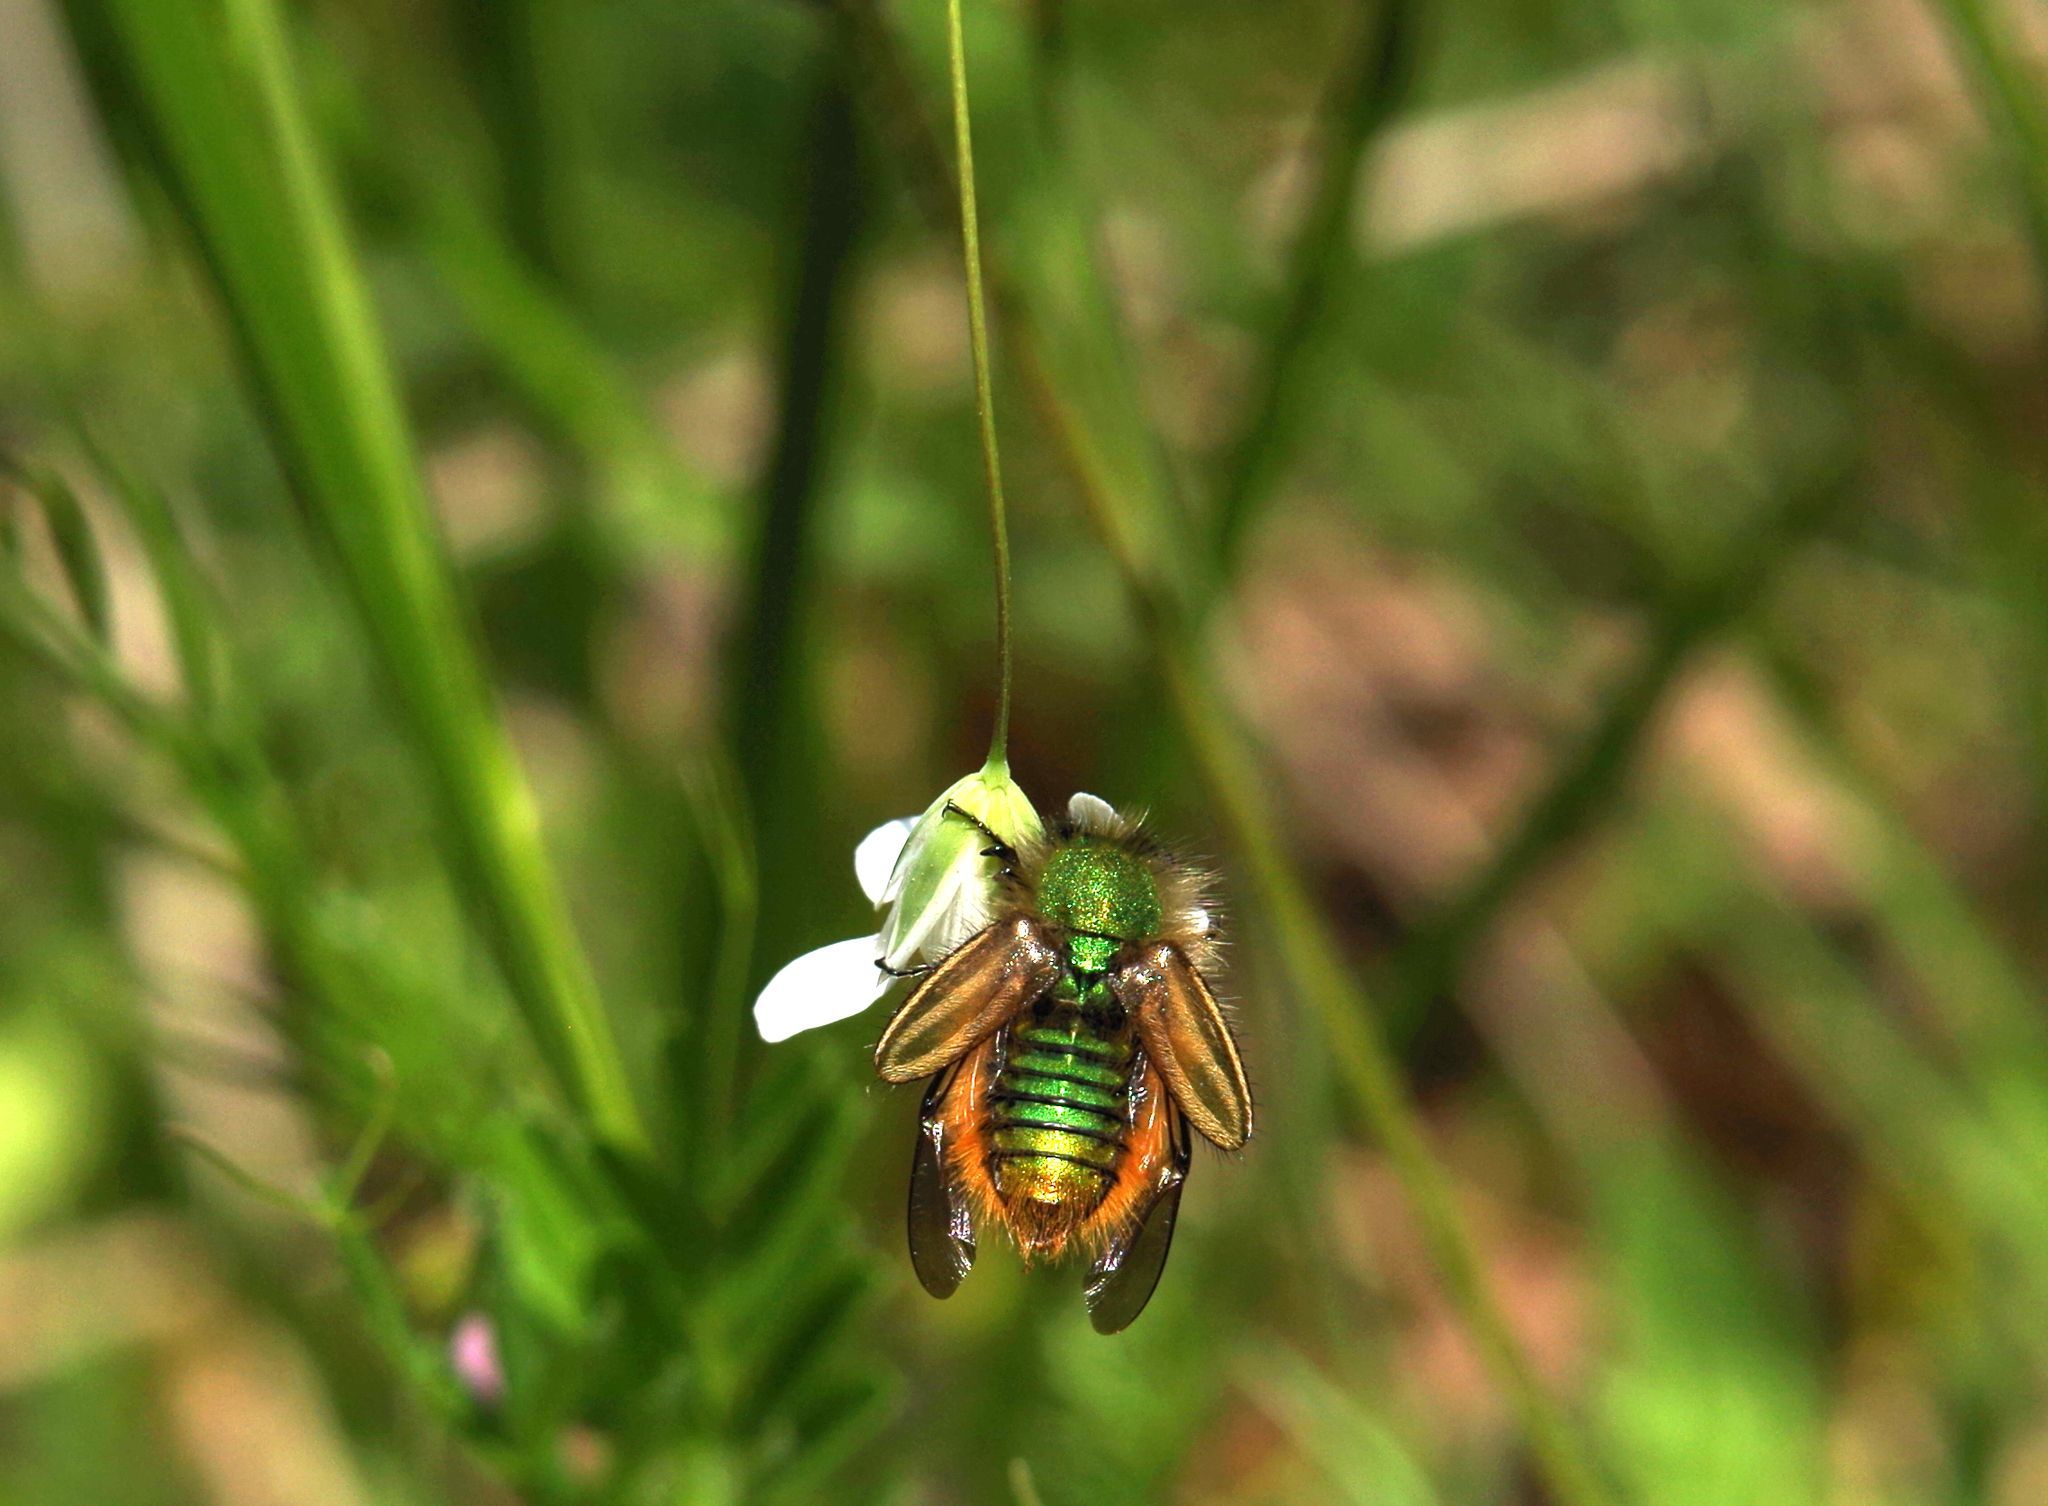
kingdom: Animalia
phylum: Arthropoda
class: Insecta
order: Coleoptera
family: Glaphyridae
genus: Eulasia
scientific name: Eulasia pareyssei
